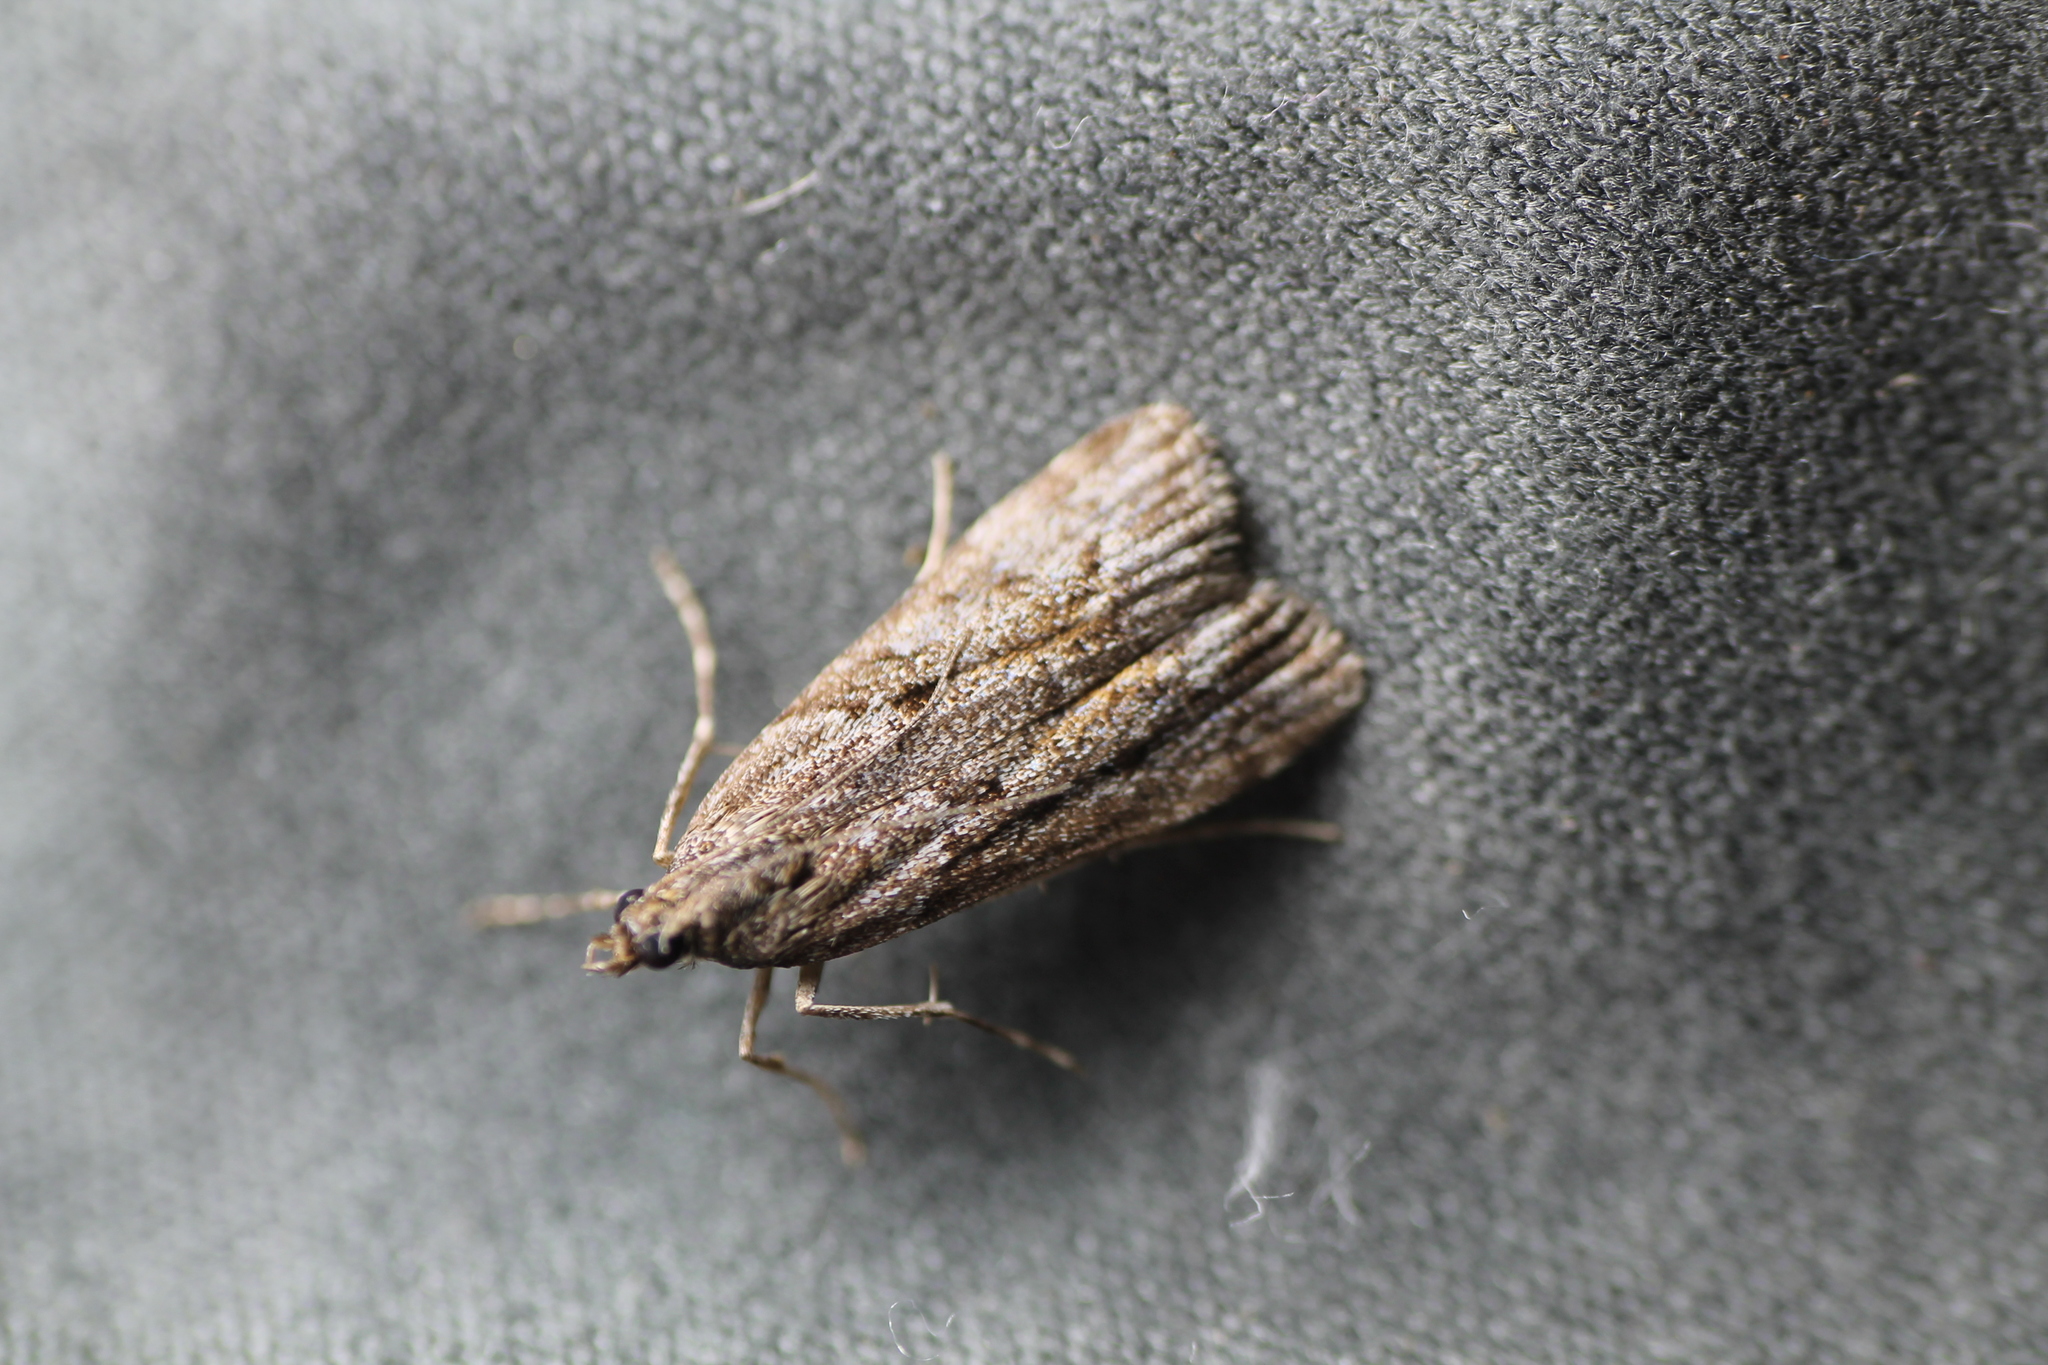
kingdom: Animalia
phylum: Arthropoda
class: Insecta
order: Lepidoptera
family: Crambidae
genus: Eudonia
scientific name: Eudonia submarginalis
